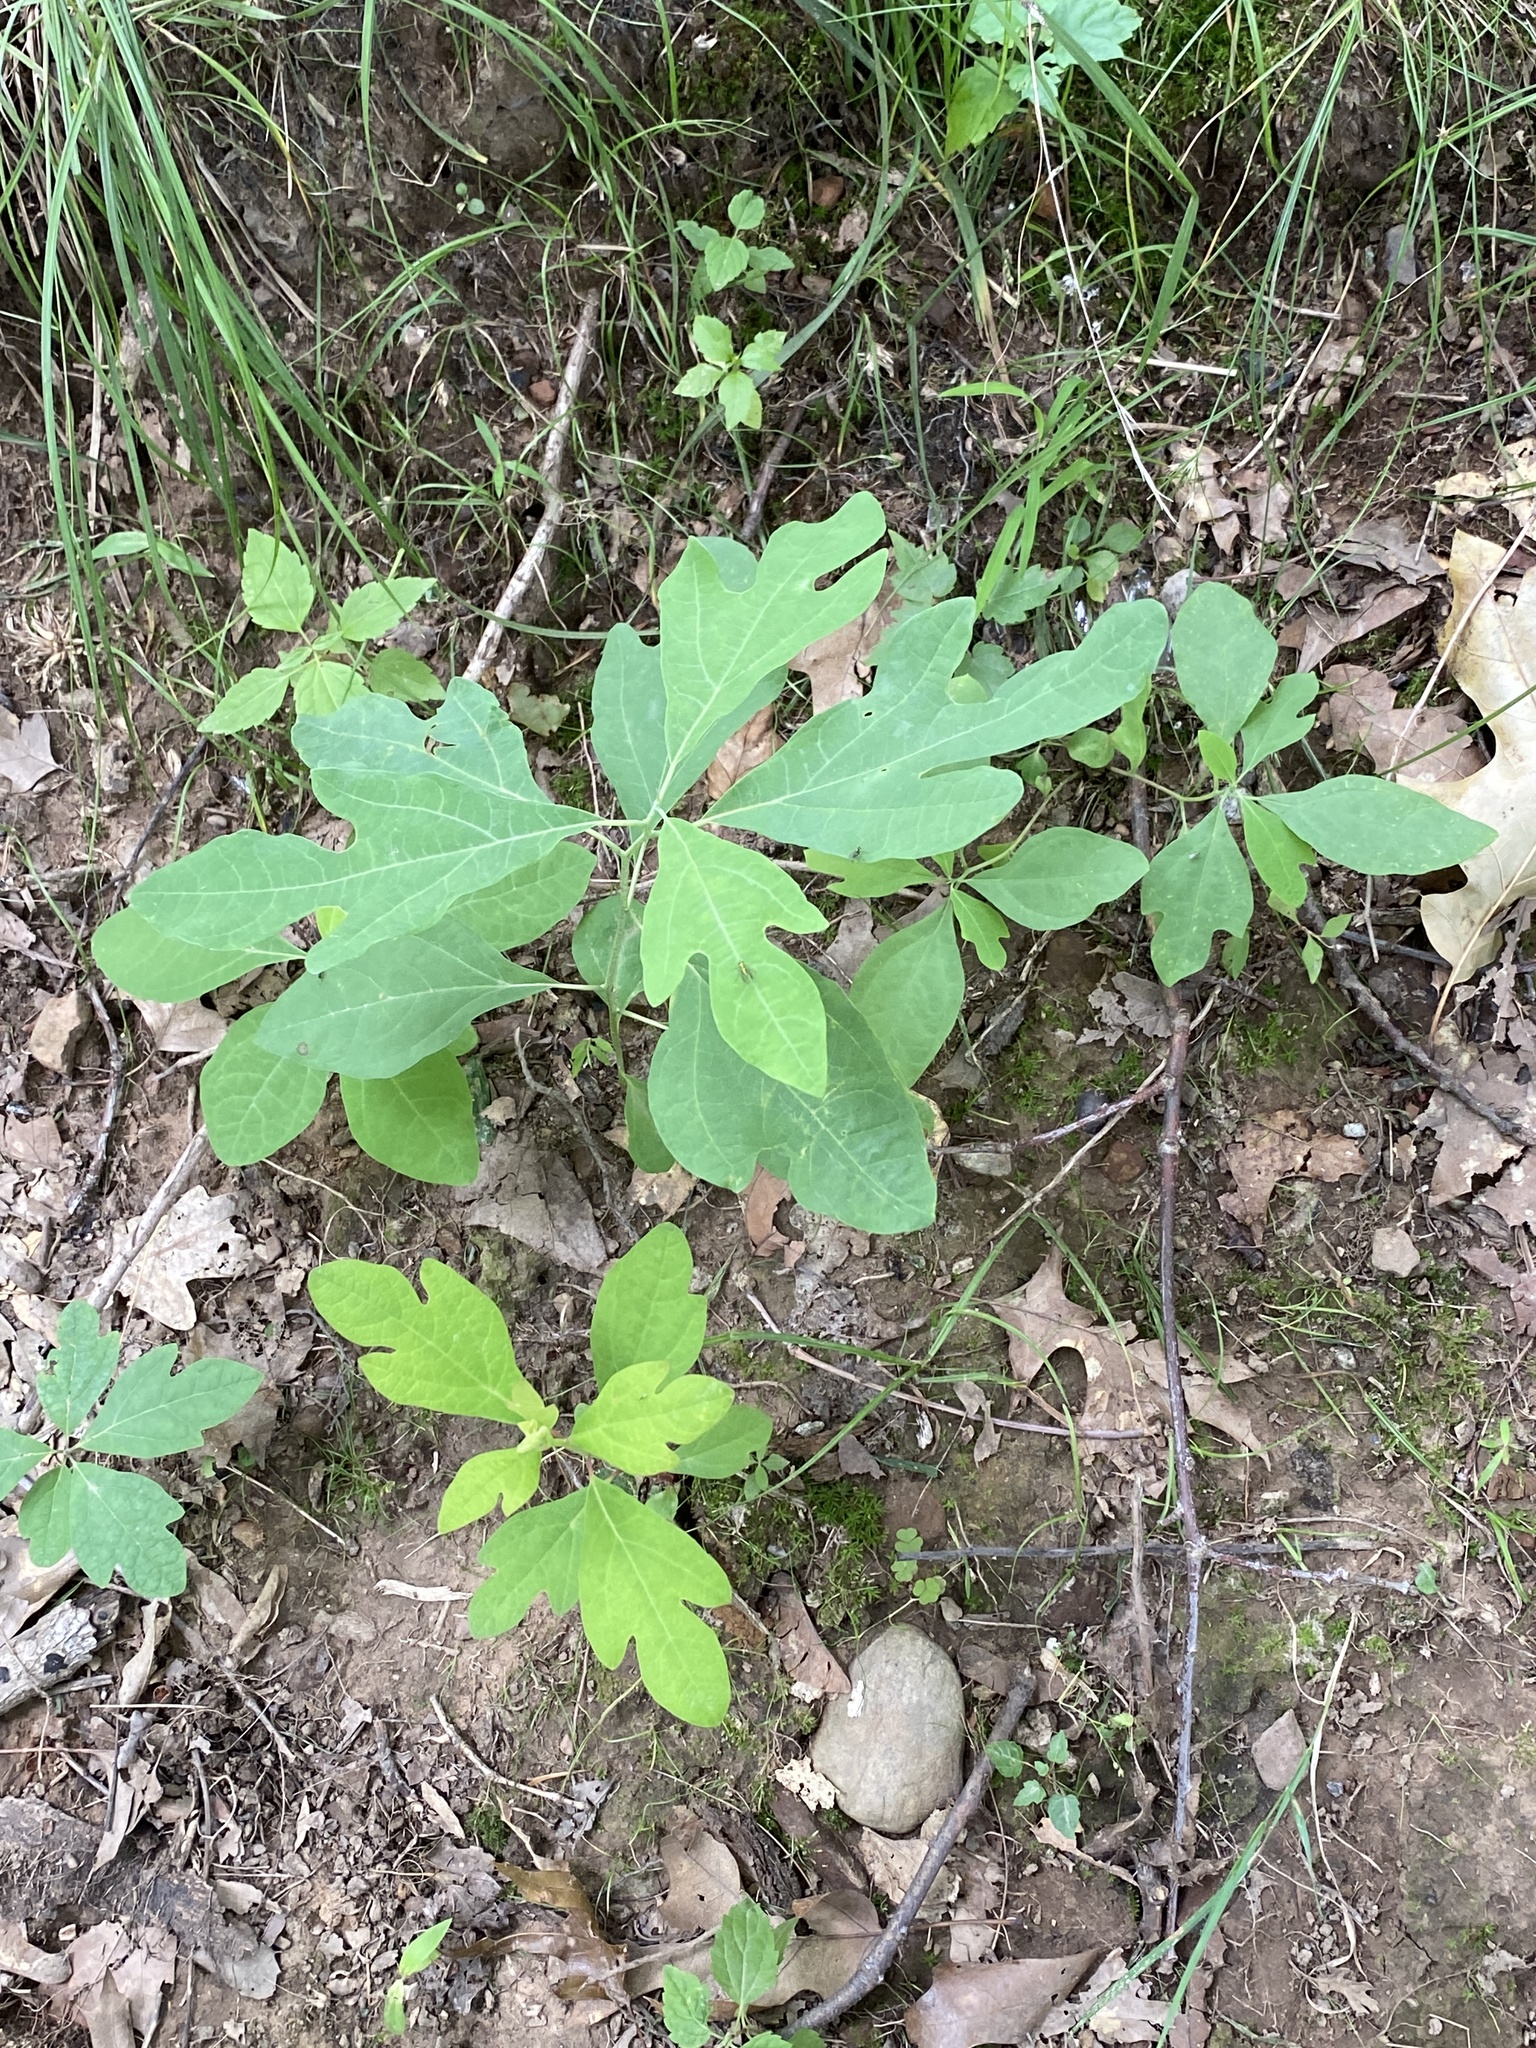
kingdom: Plantae
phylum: Tracheophyta
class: Magnoliopsida
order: Laurales
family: Lauraceae
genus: Sassafras
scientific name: Sassafras albidum
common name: Sassafras
